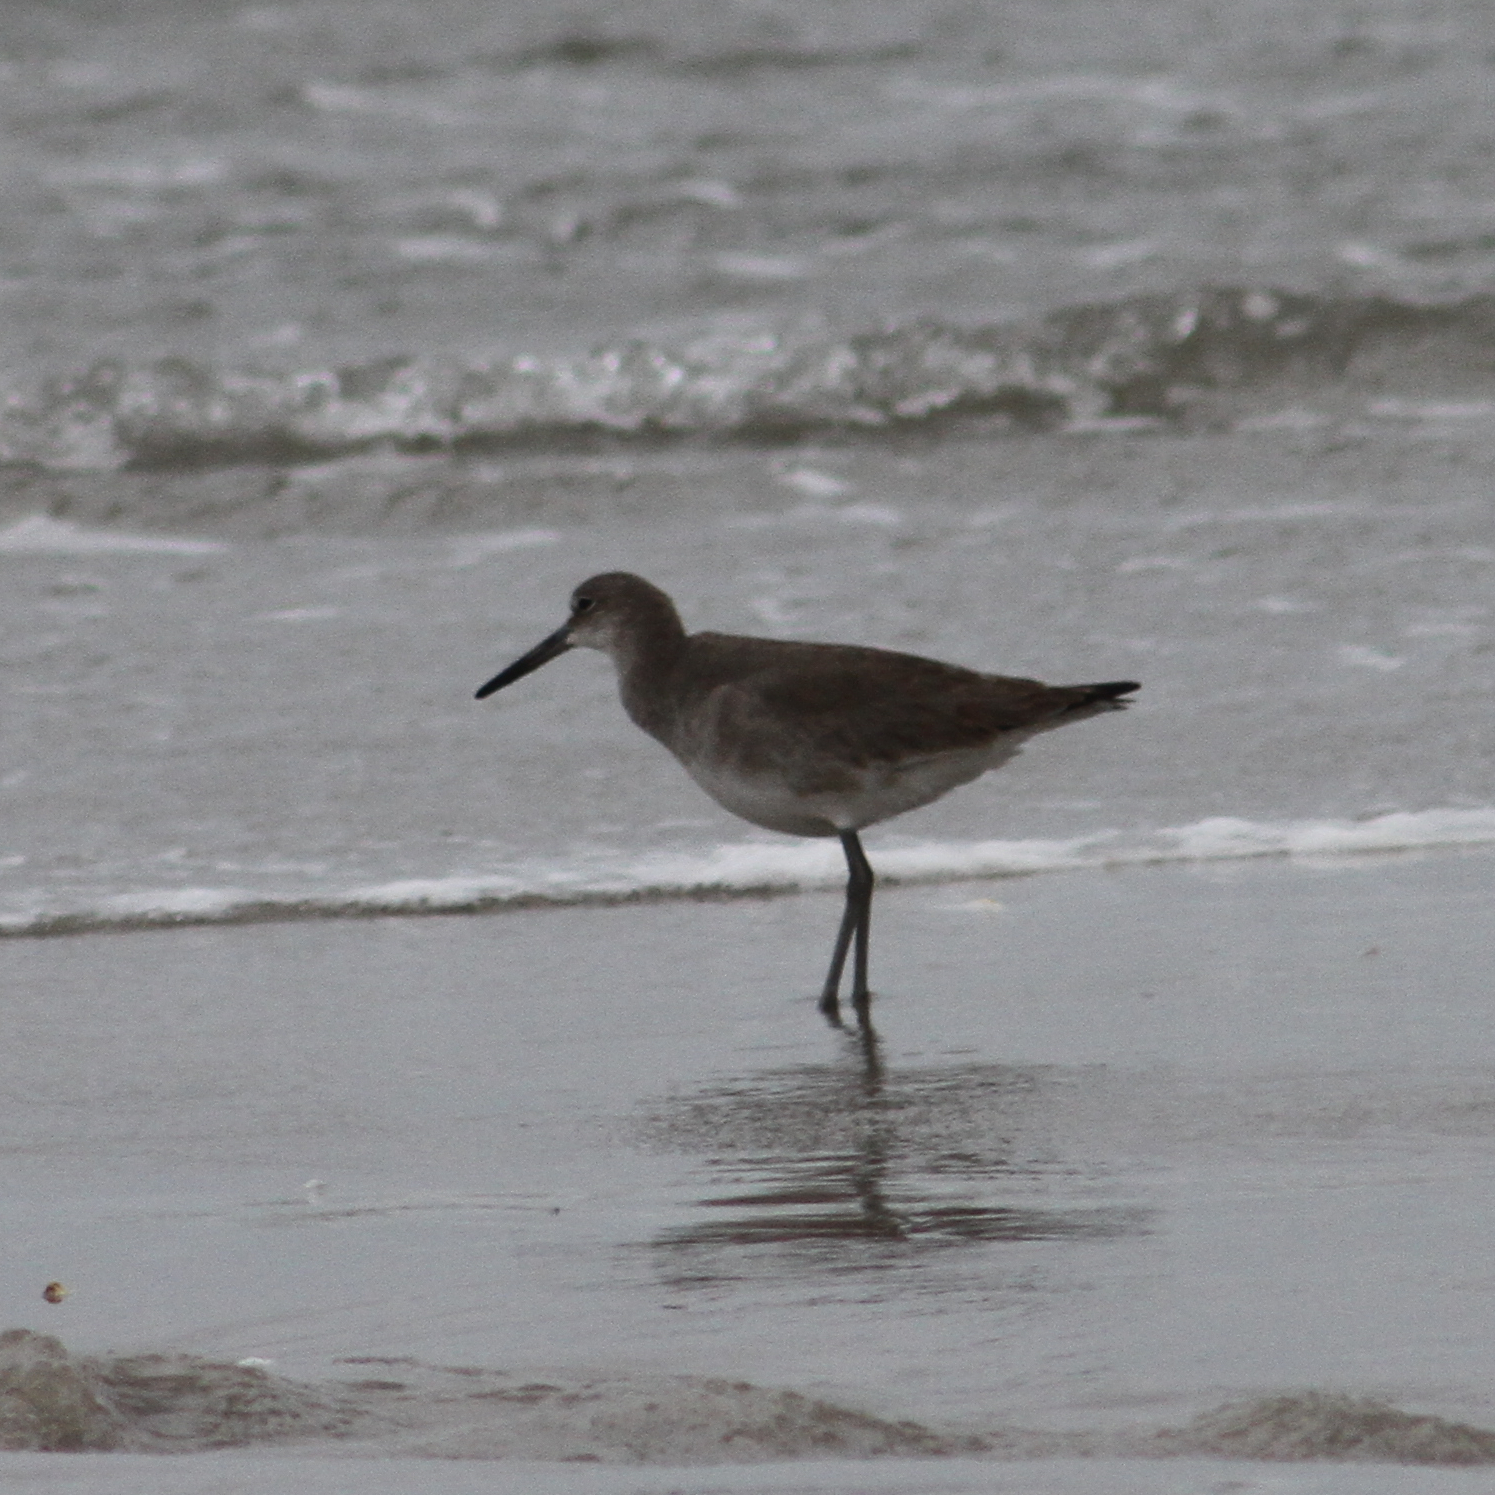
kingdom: Animalia
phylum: Chordata
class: Aves
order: Charadriiformes
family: Scolopacidae
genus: Tringa
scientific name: Tringa semipalmata
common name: Willet
